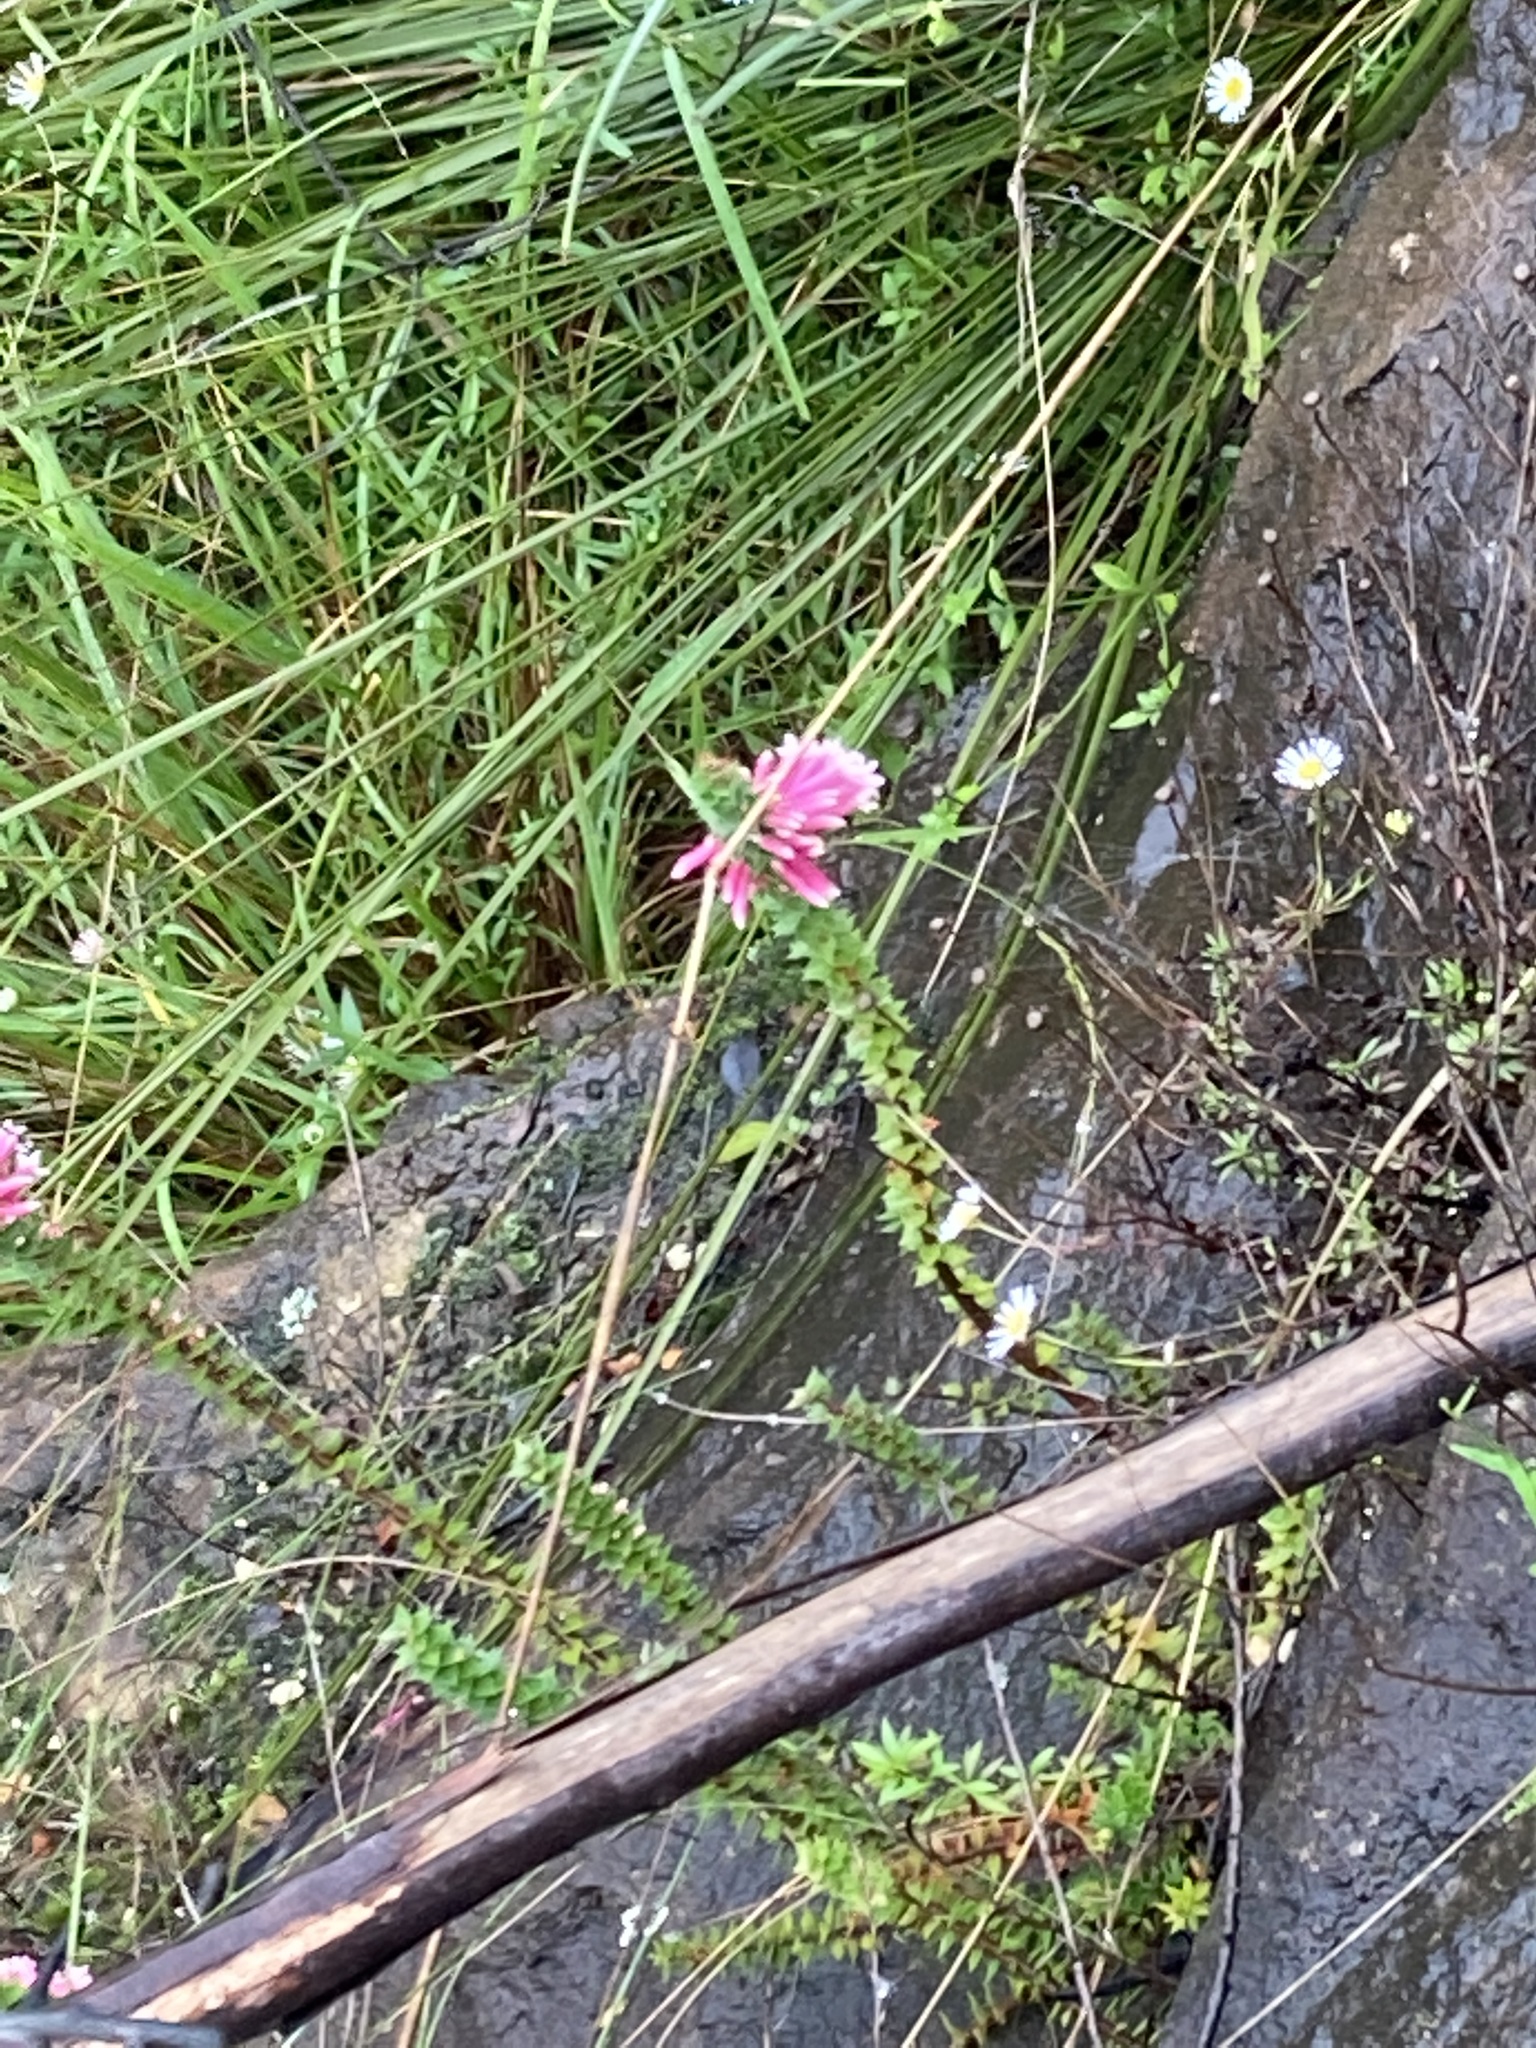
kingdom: Plantae
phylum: Tracheophyta
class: Magnoliopsida
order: Ericales
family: Ericaceae
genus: Epacris
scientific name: Epacris reclinata
